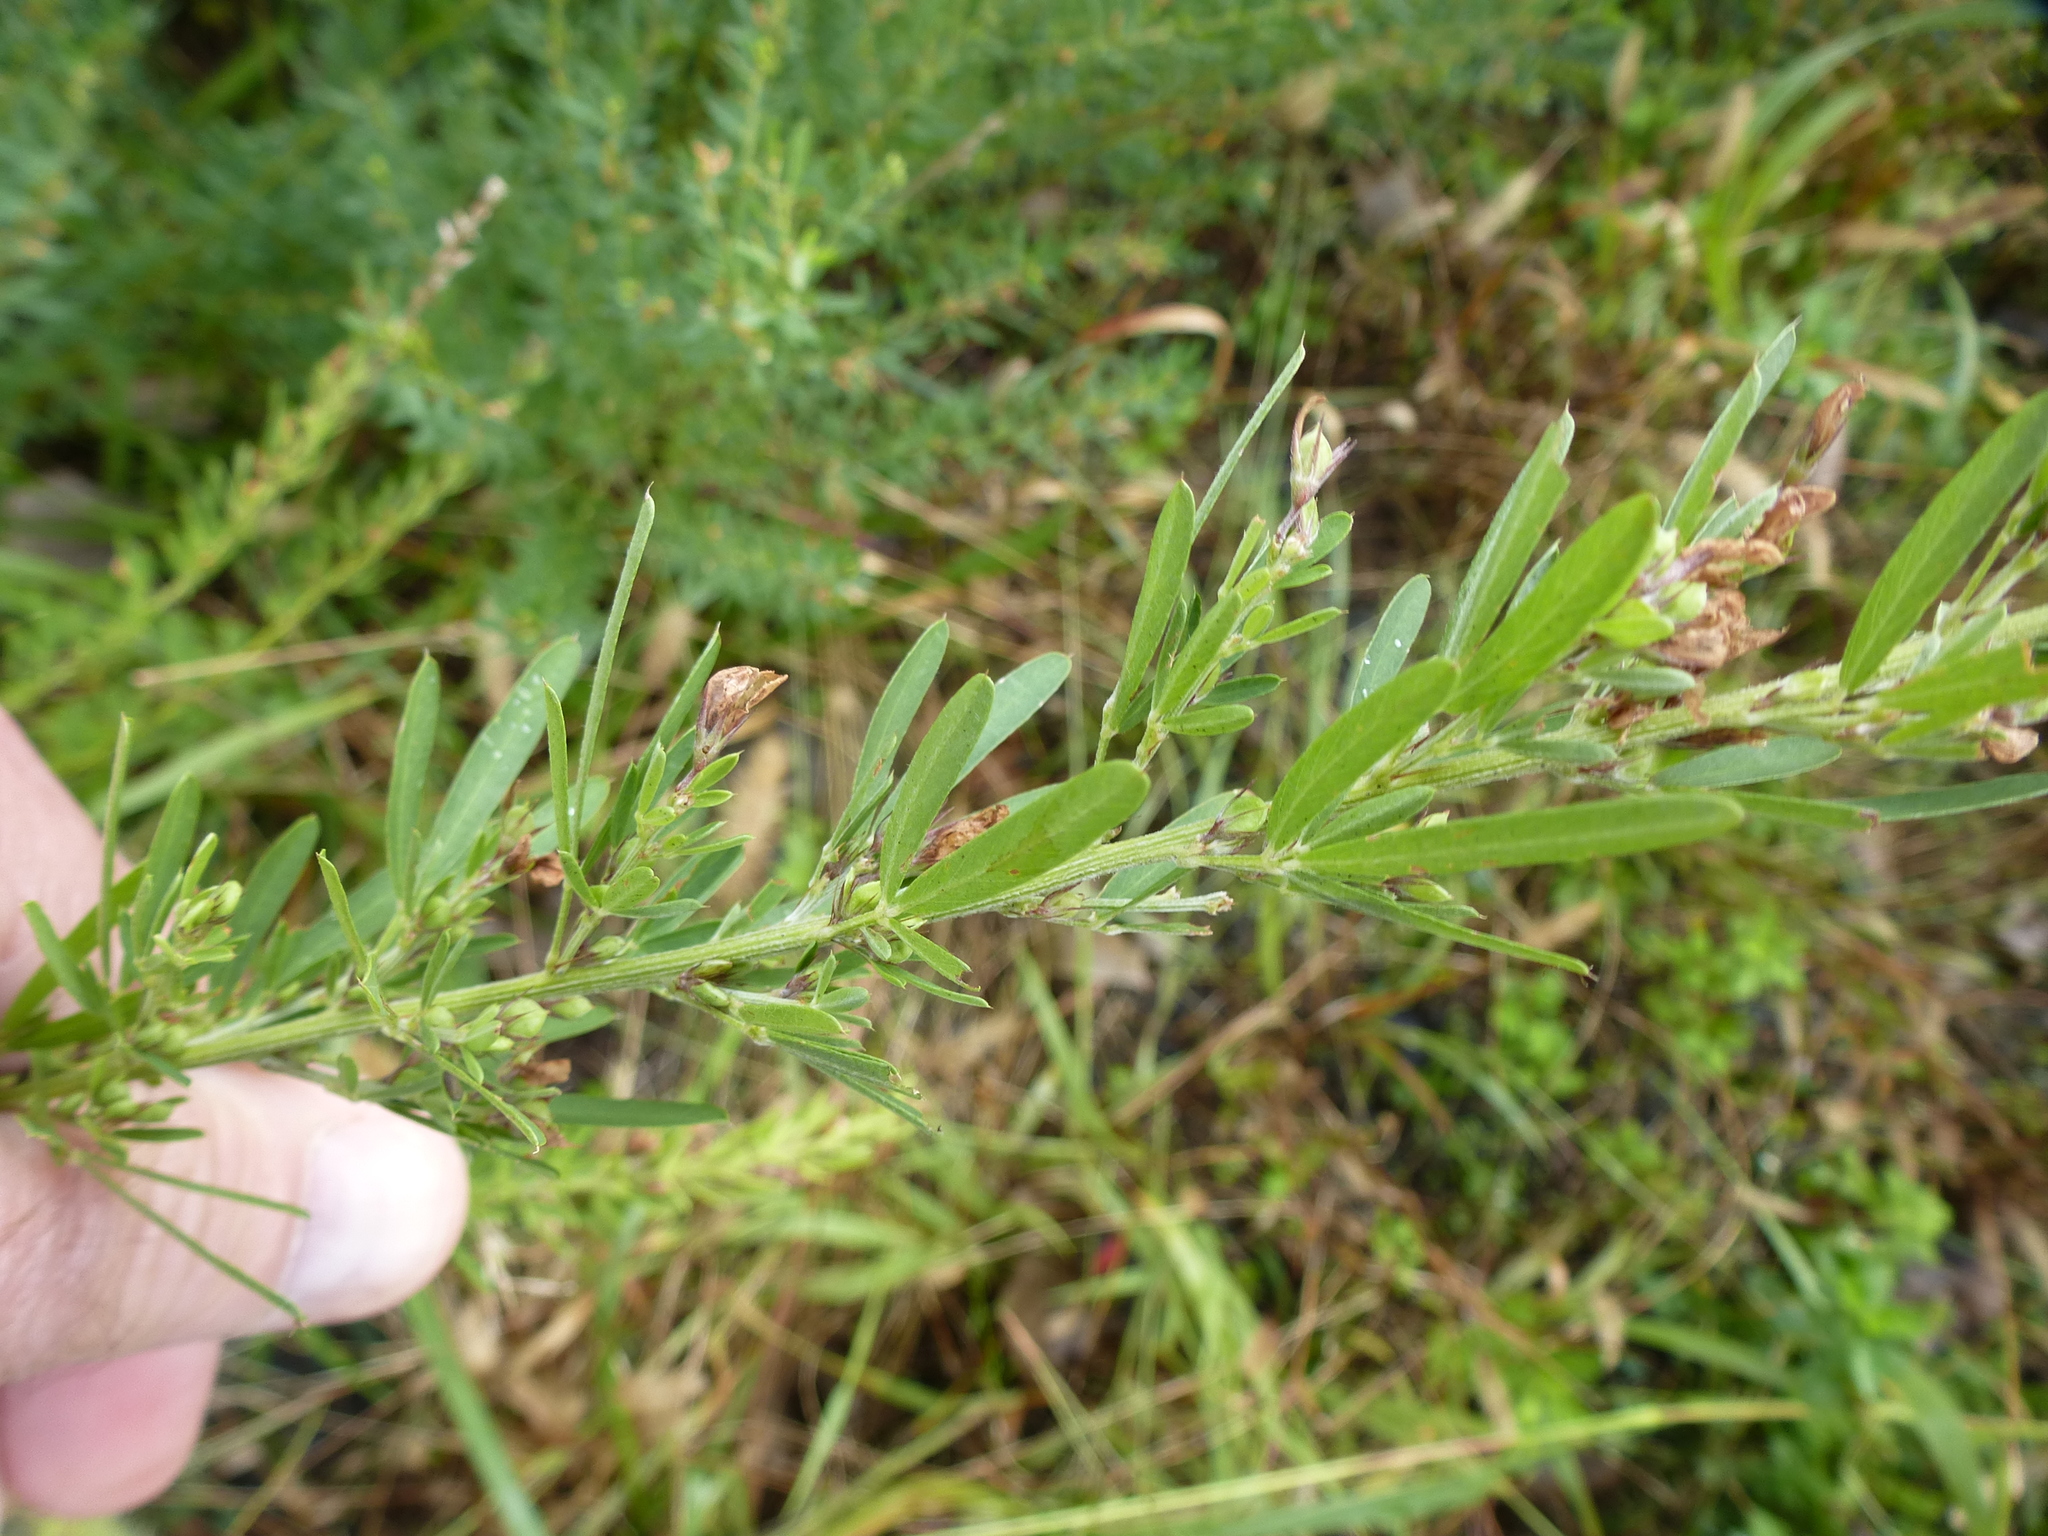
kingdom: Plantae
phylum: Tracheophyta
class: Magnoliopsida
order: Fabales
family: Fabaceae
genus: Lespedeza
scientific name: Lespedeza cuneata
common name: Chinese bush-clover
